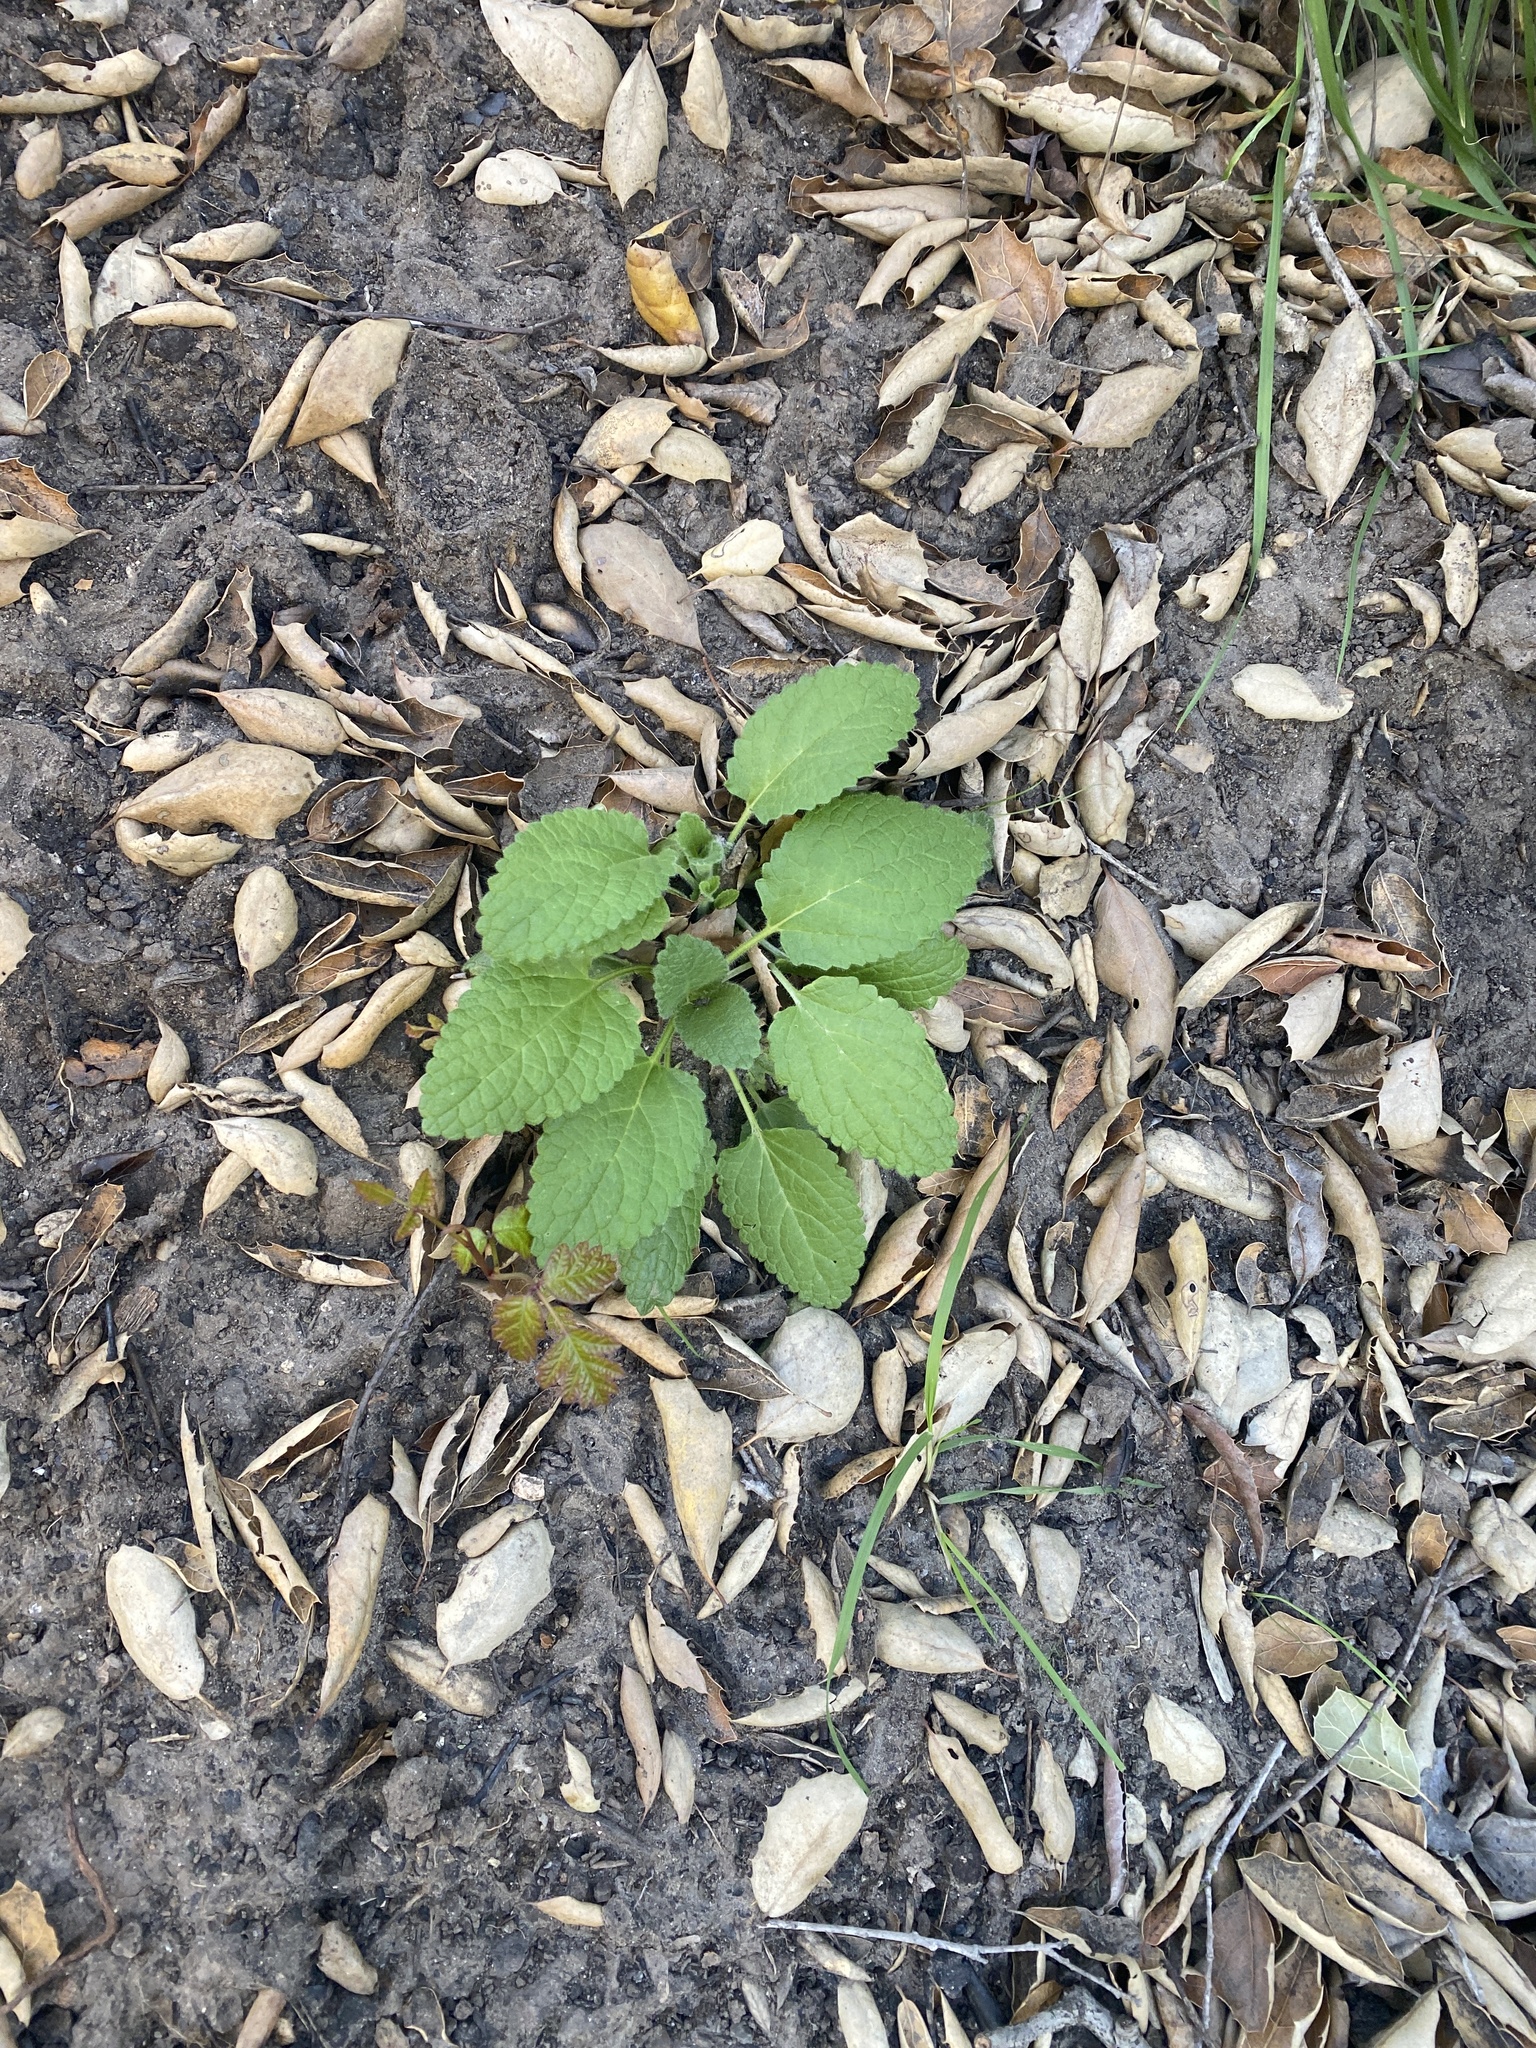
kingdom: Plantae
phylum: Tracheophyta
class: Magnoliopsida
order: Lamiales
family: Lamiaceae
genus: Stachys
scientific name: Stachys rigida
